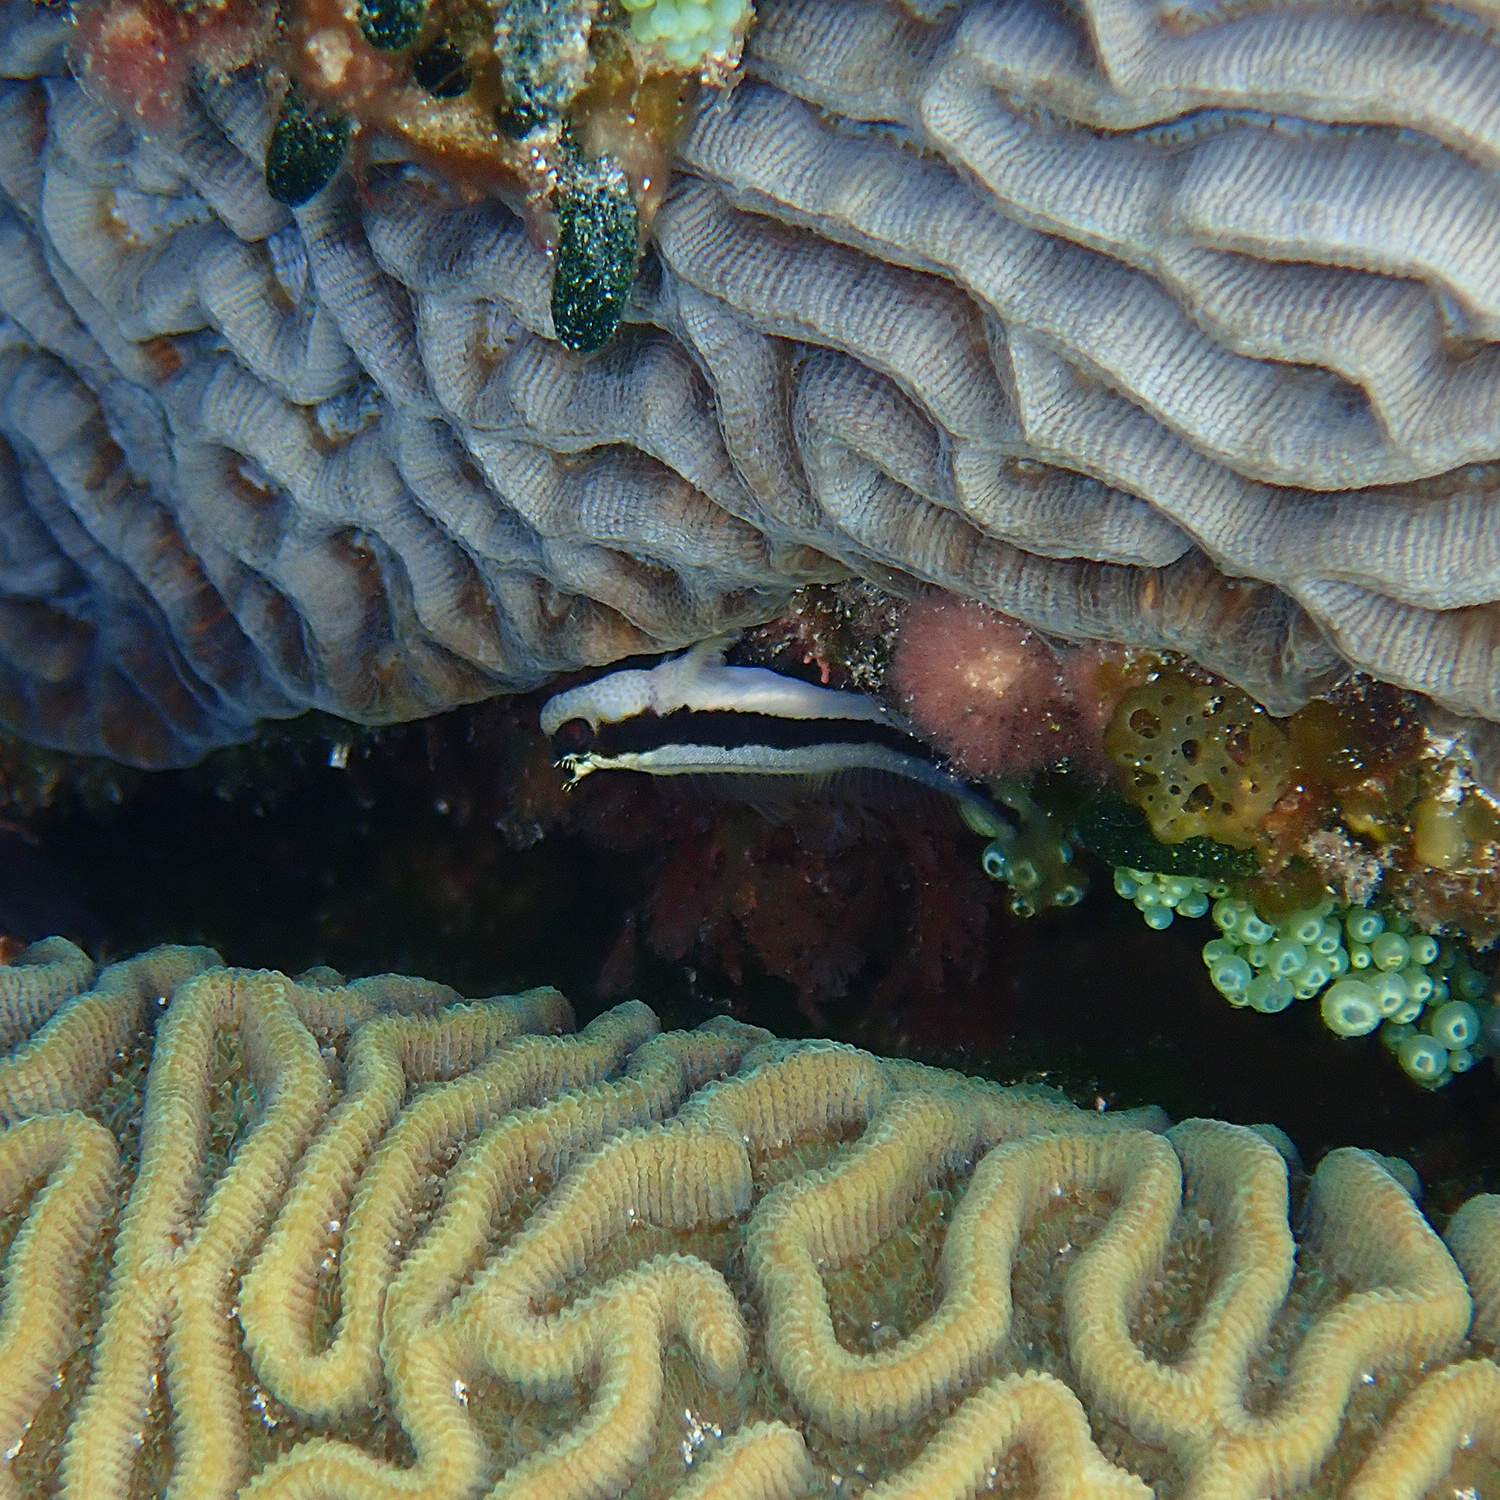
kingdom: Animalia
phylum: Cnidaria
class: Anthozoa
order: Scleractinia
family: Merulinidae
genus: Paragoniastrea
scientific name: Paragoniastrea australensis
